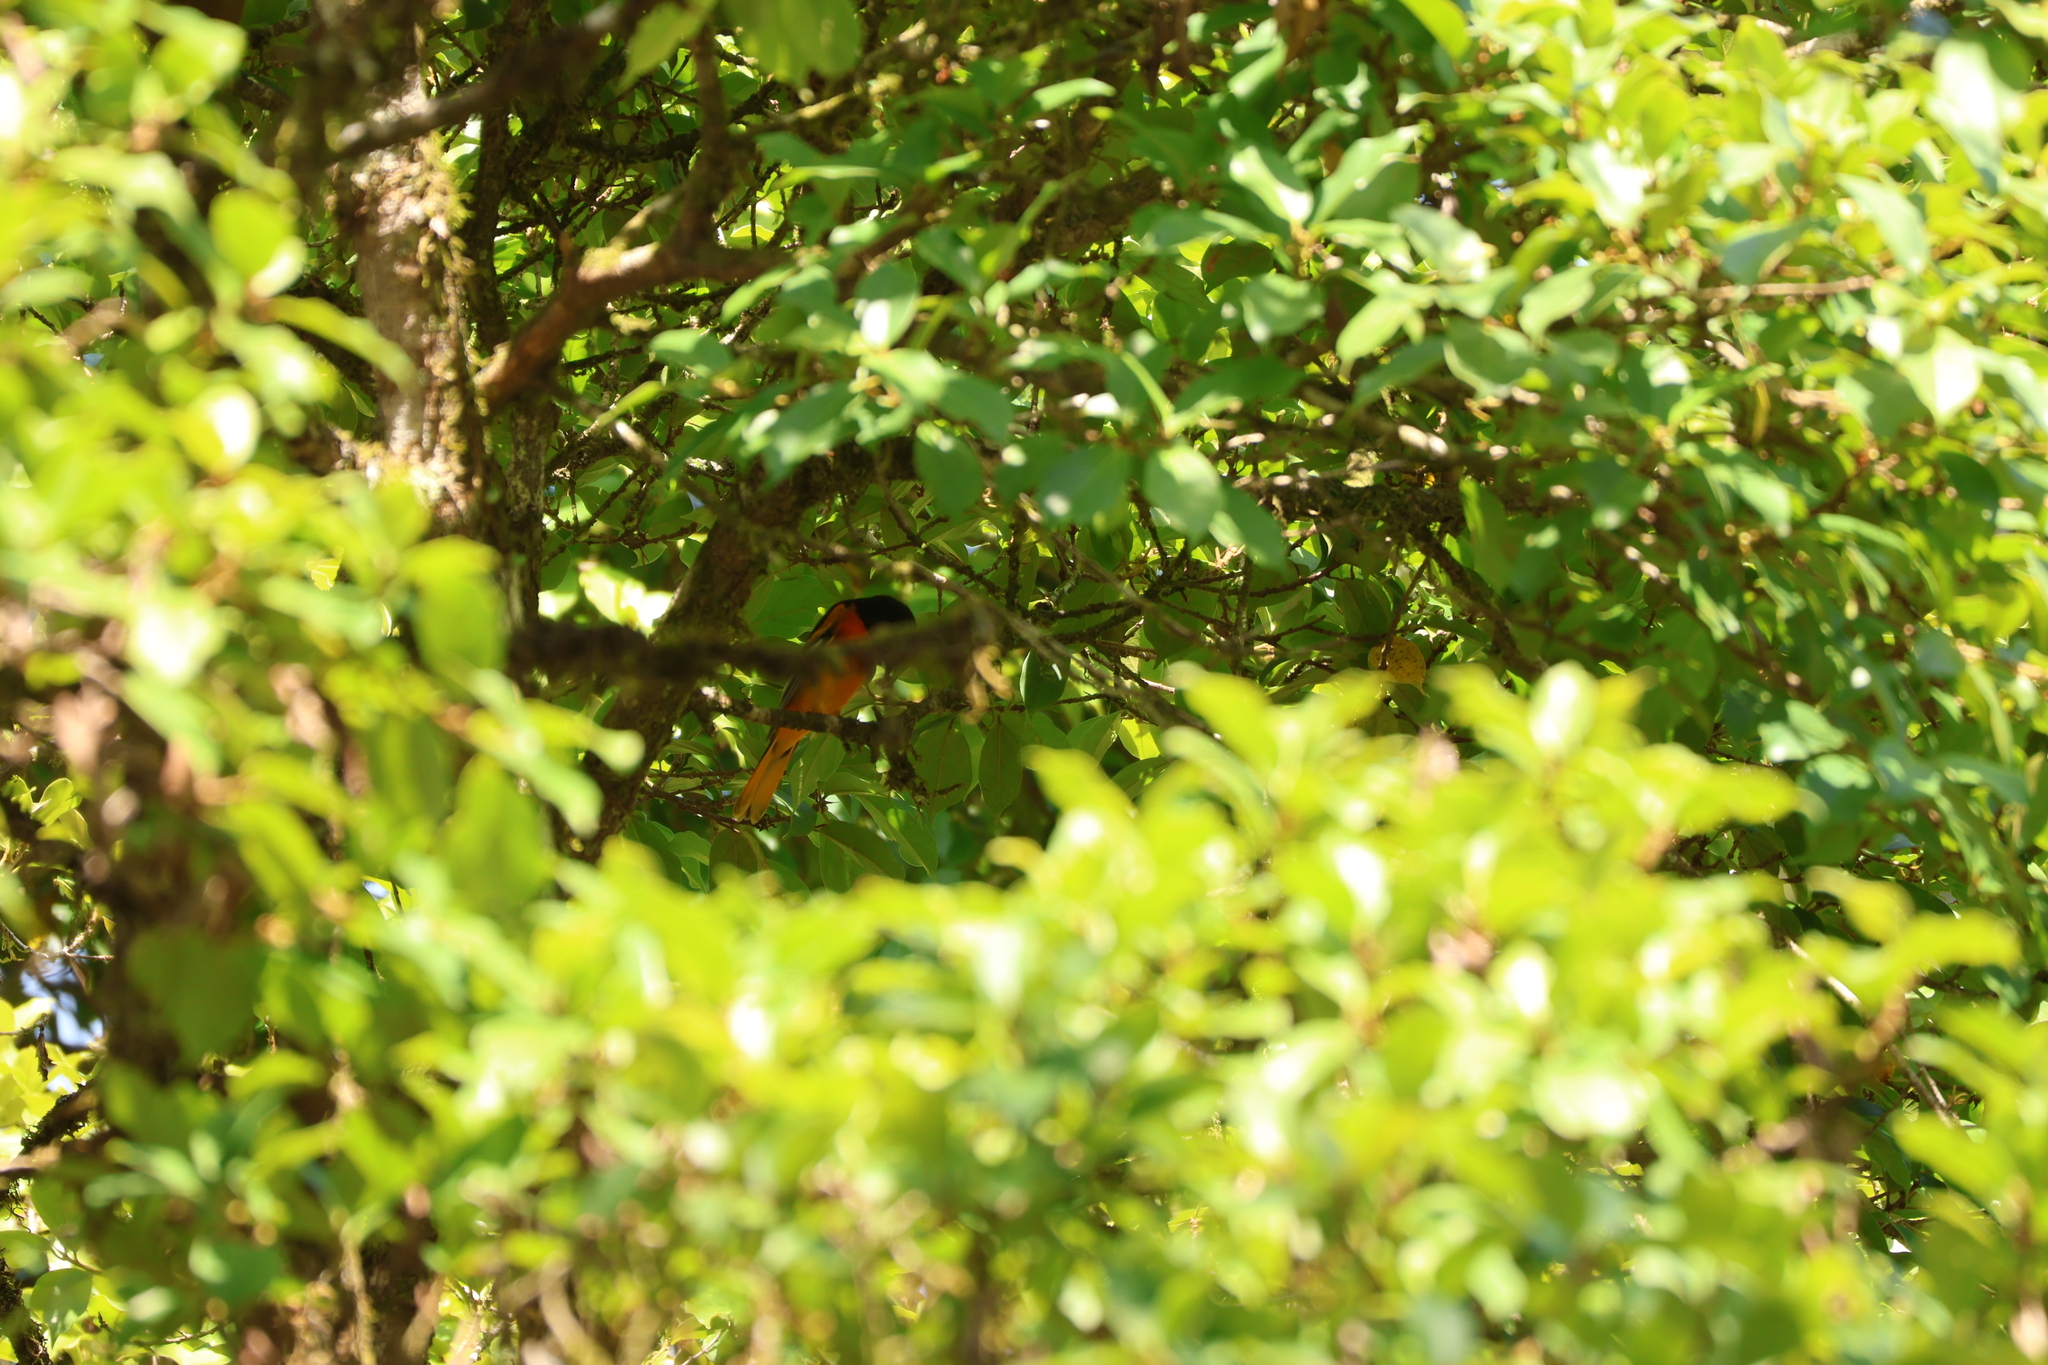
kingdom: Animalia
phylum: Chordata
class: Aves
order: Passeriformes
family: Icteridae
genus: Icterus
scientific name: Icterus galbula
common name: Baltimore oriole
